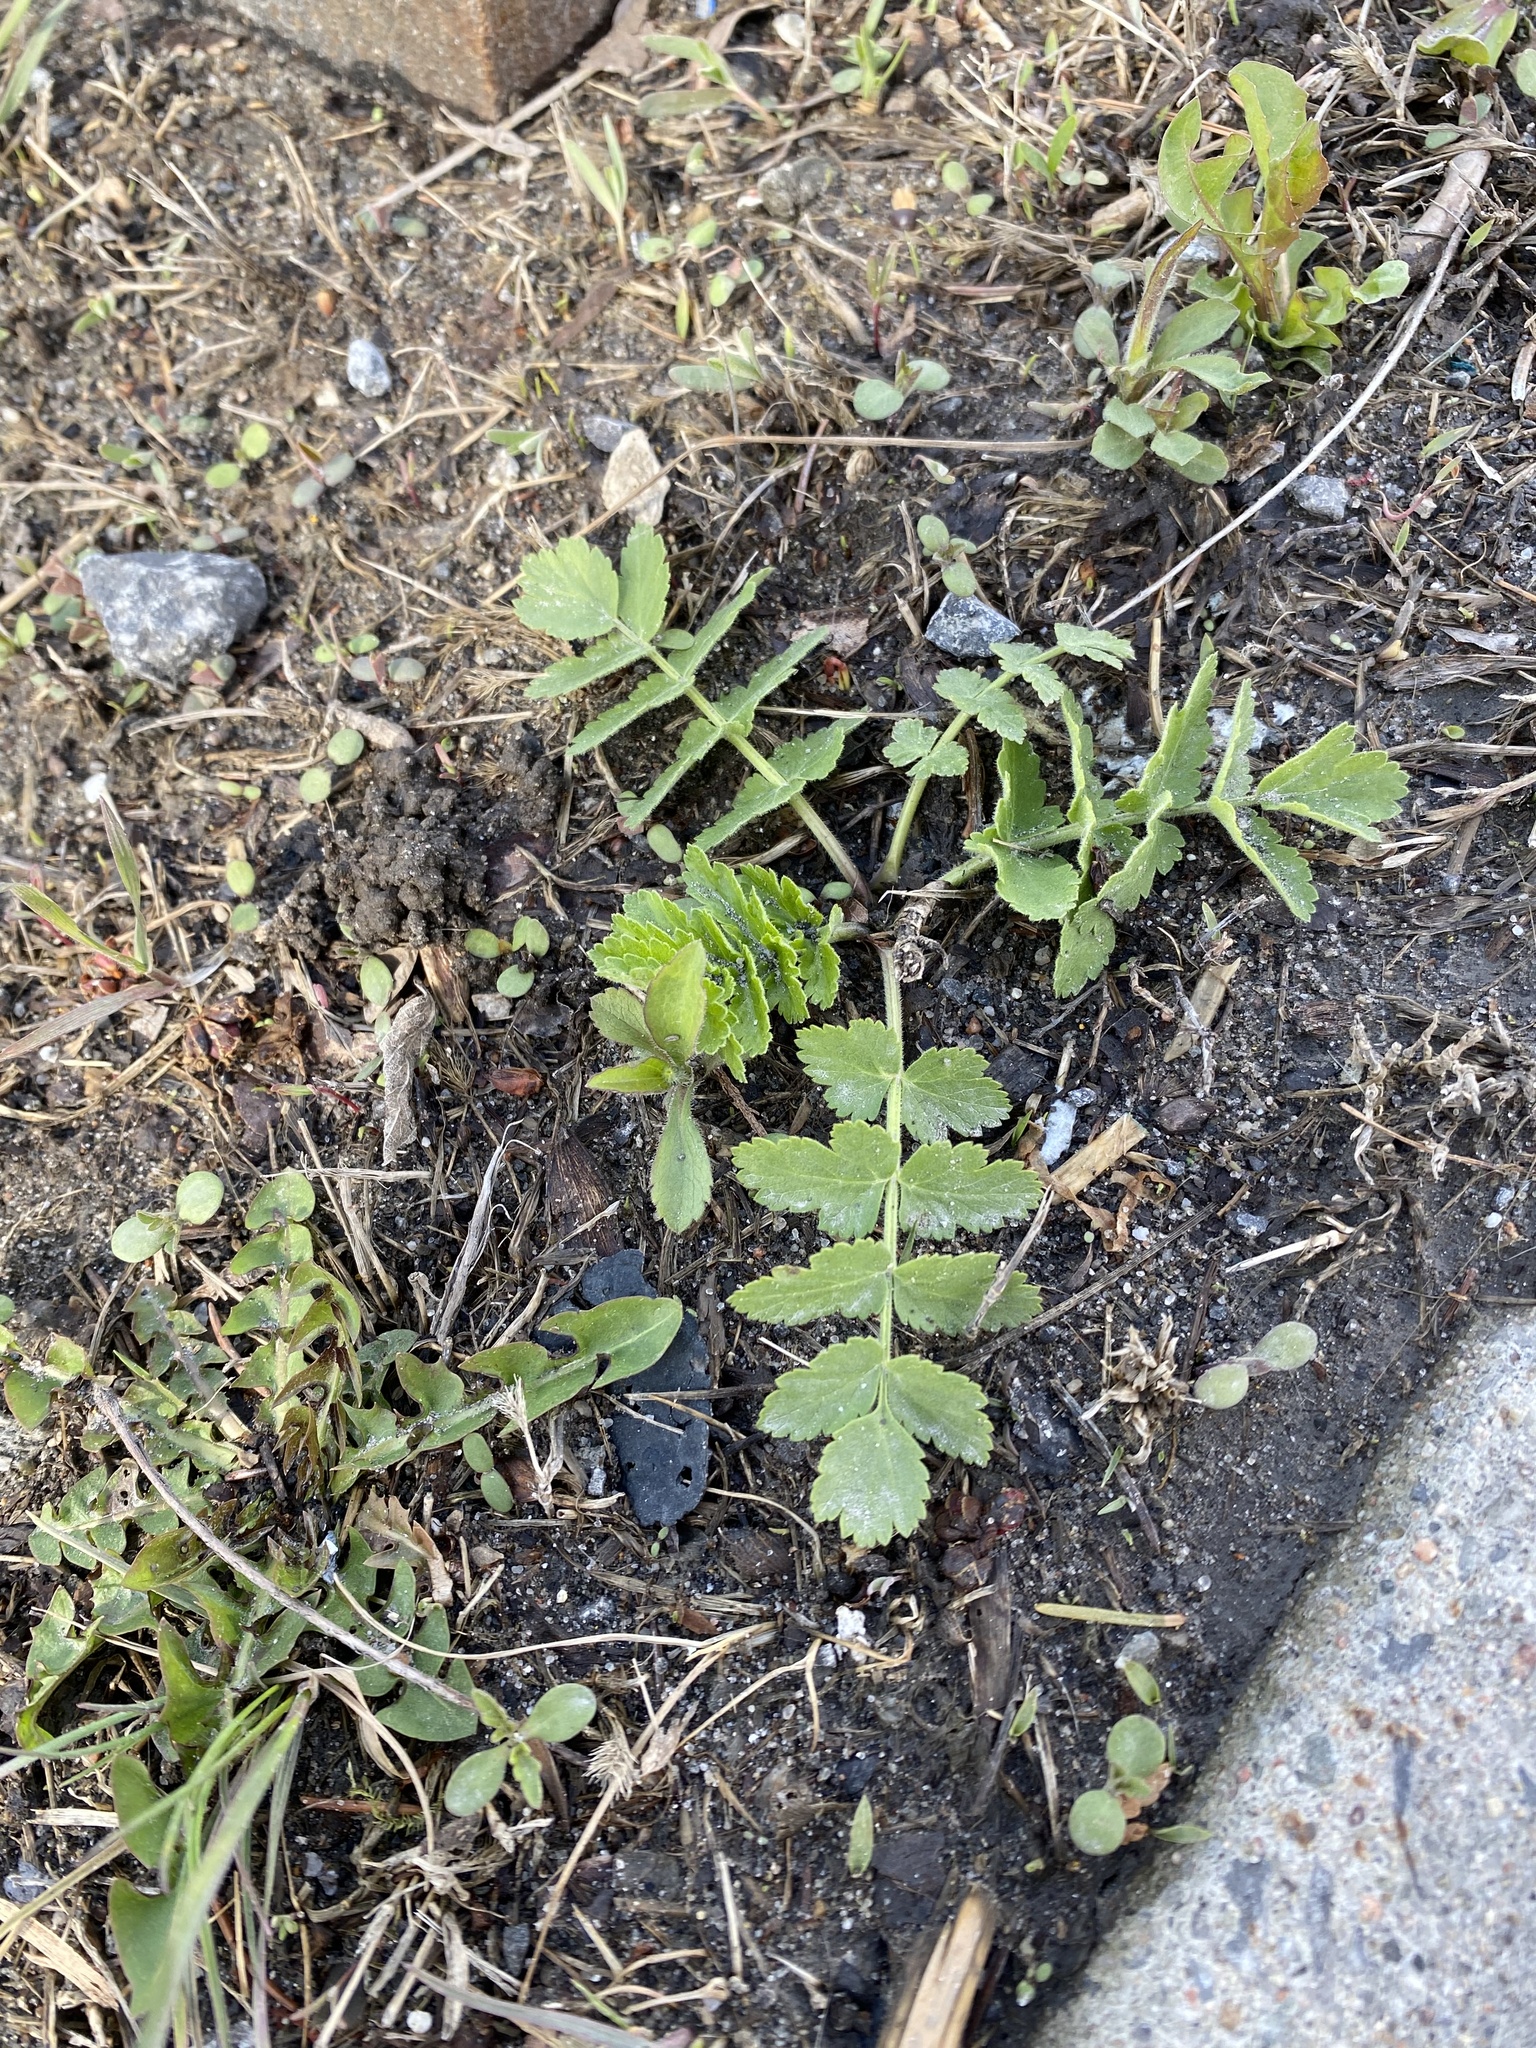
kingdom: Plantae
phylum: Tracheophyta
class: Magnoliopsida
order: Apiales
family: Apiaceae
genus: Pastinaca
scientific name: Pastinaca sativa
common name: Wild parsnip
